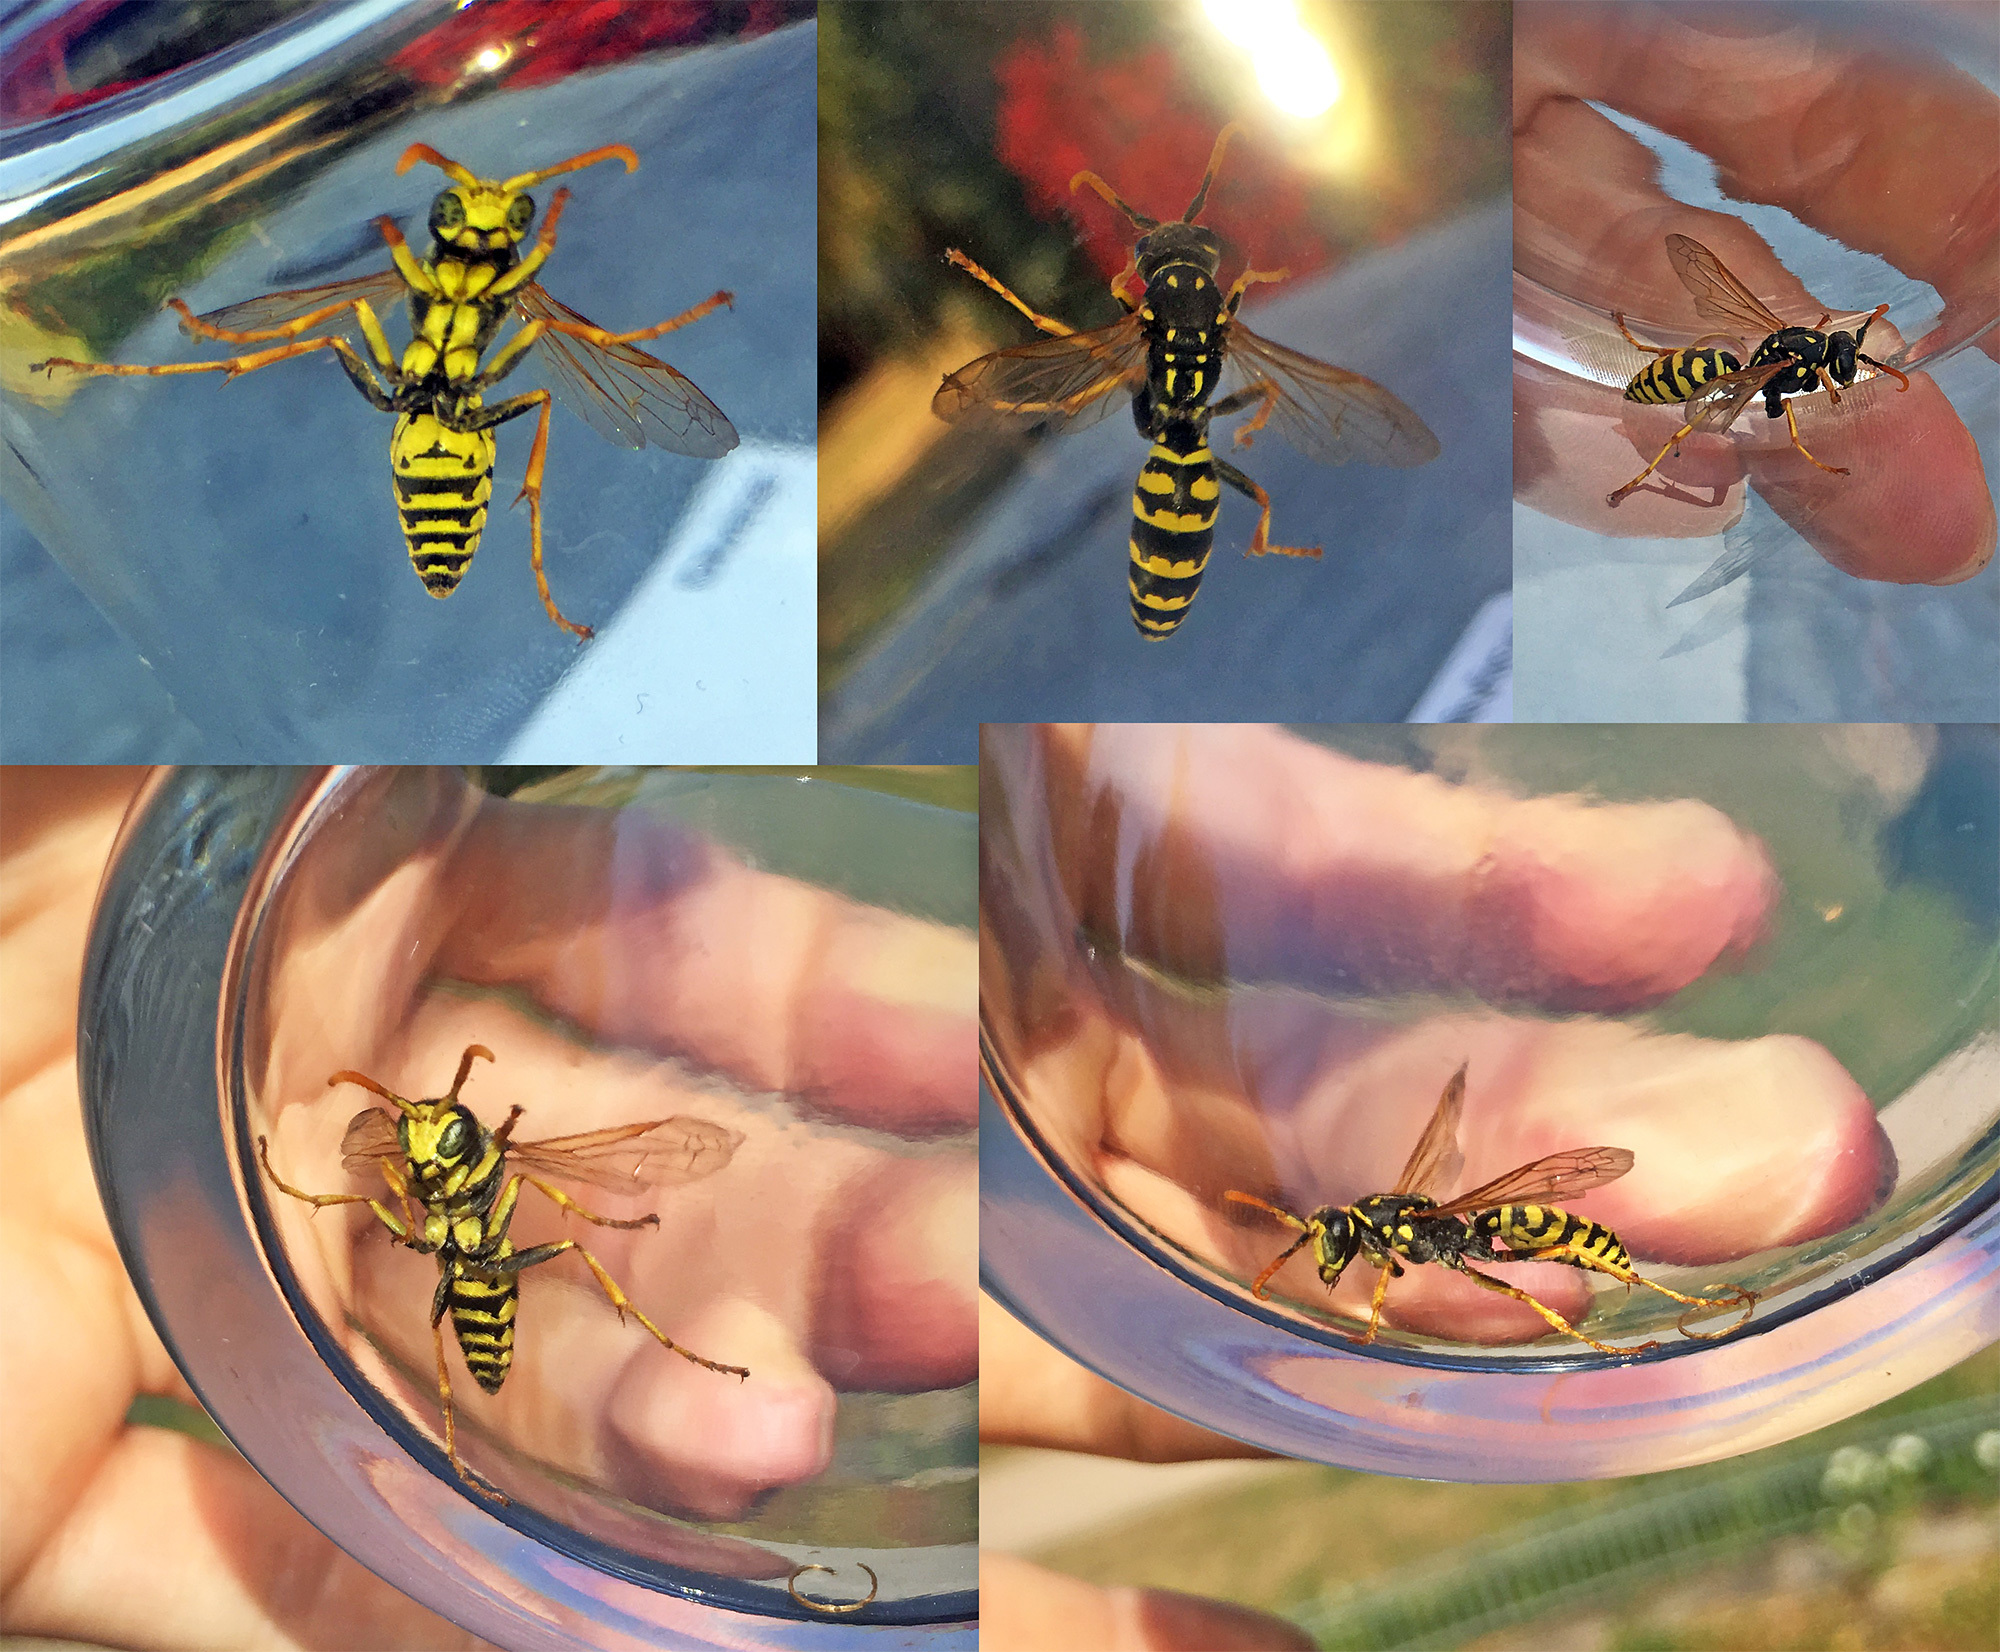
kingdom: Animalia
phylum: Arthropoda
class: Insecta
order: Hymenoptera
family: Eumenidae
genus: Polistes
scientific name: Polistes dominula
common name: Paper wasp
